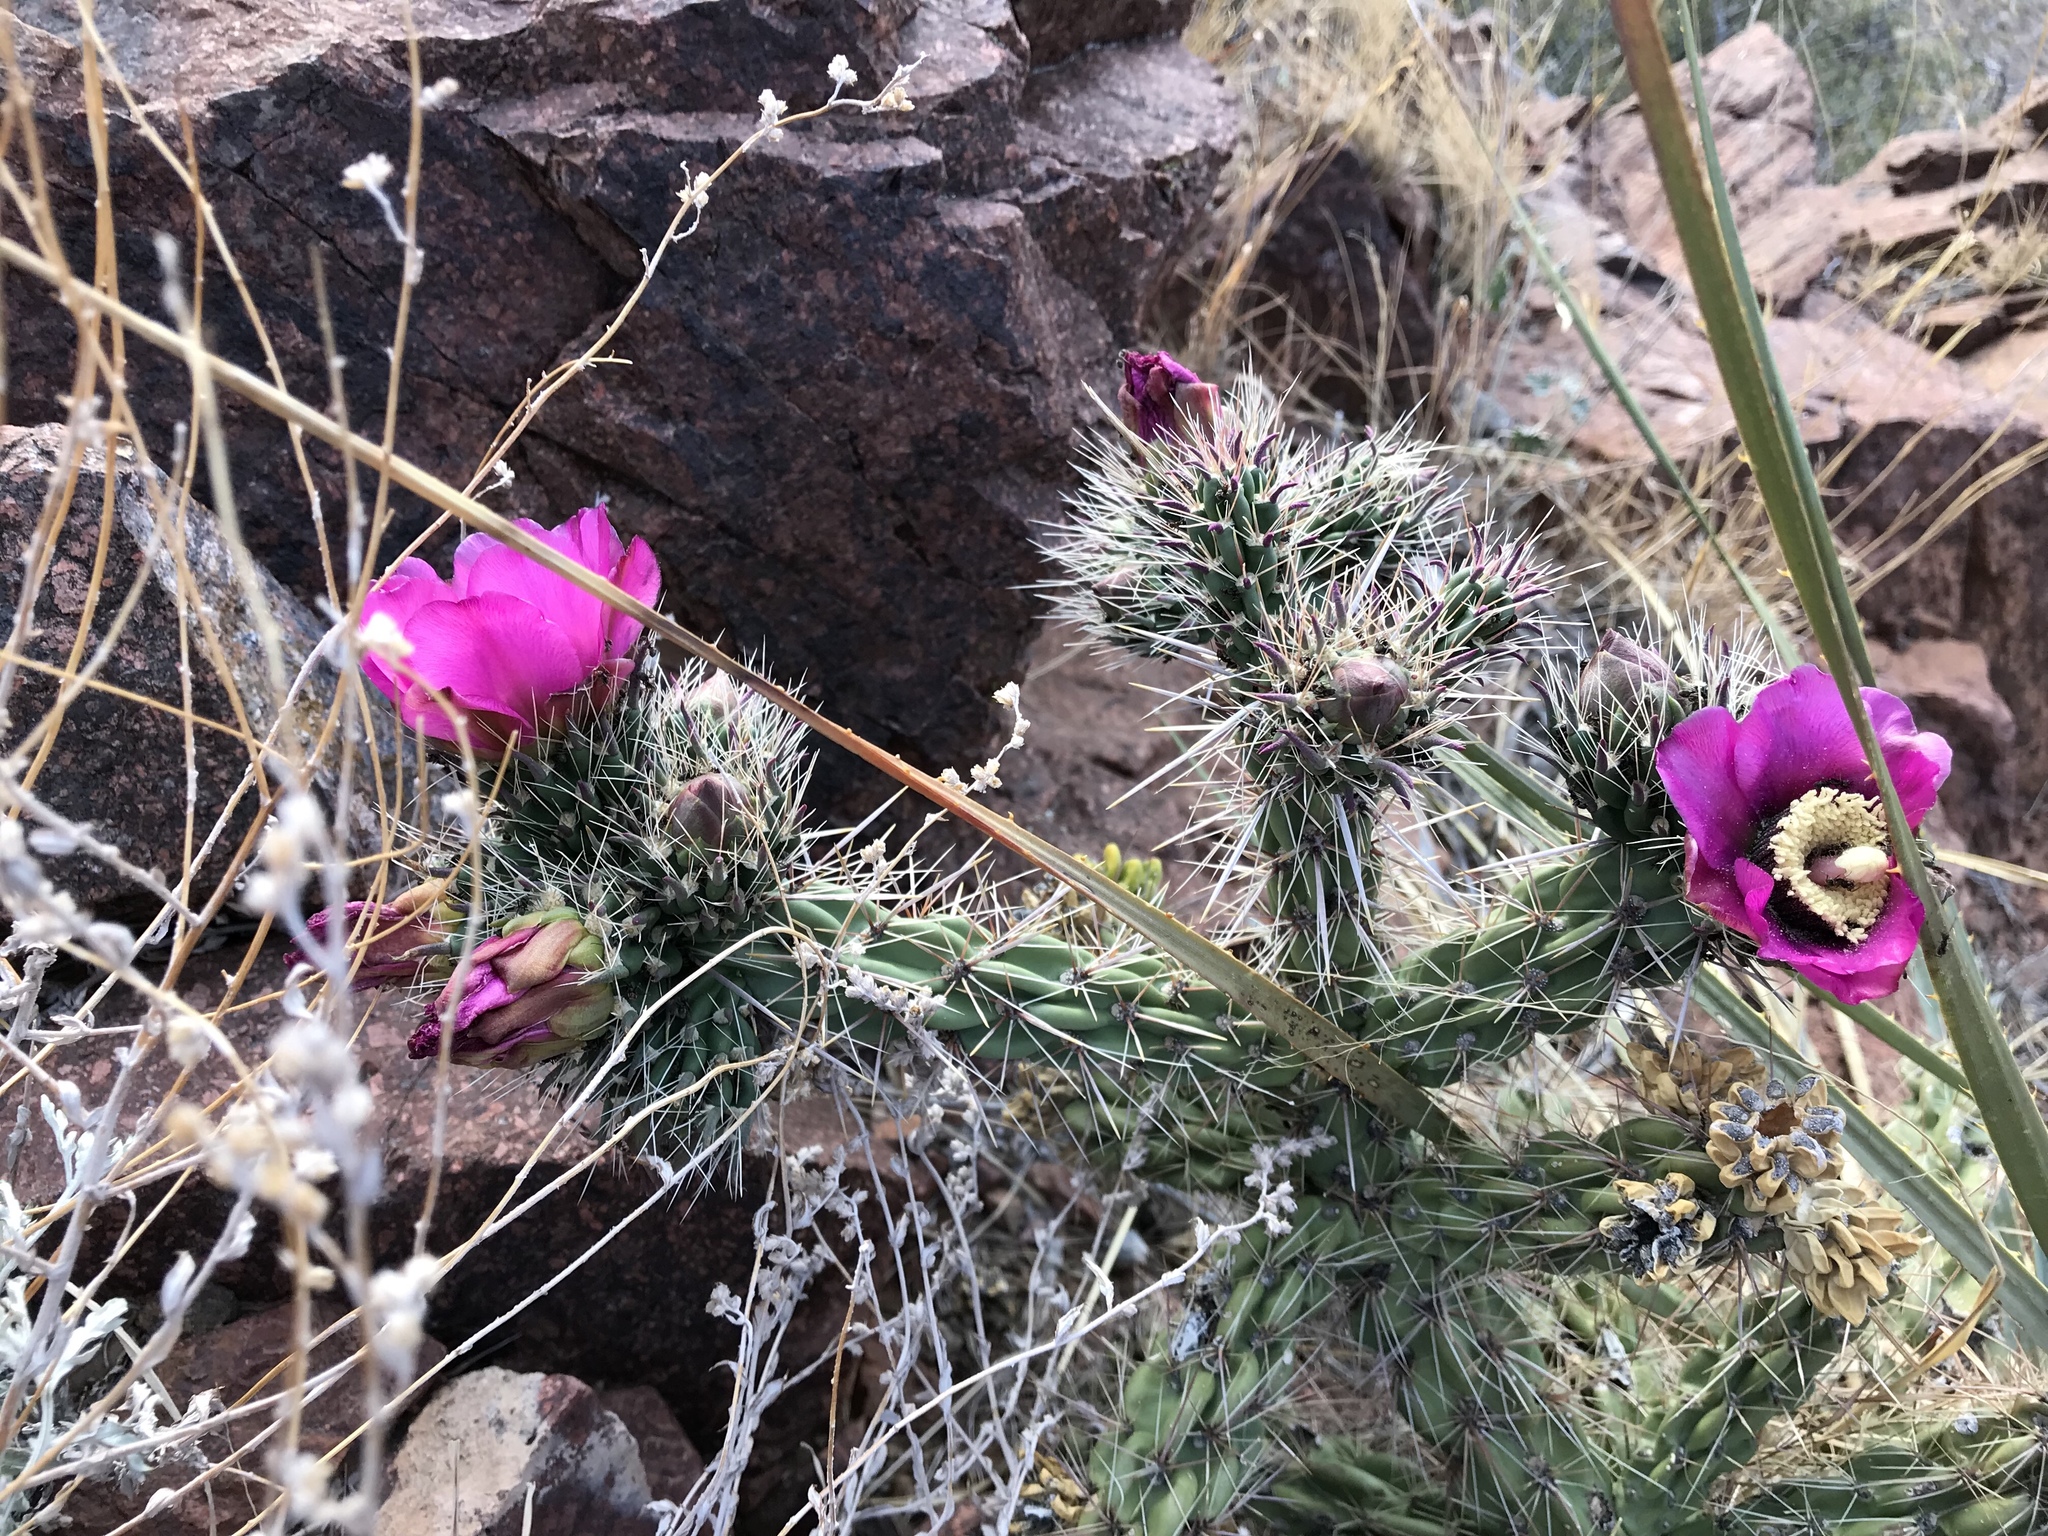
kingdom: Plantae
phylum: Tracheophyta
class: Magnoliopsida
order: Caryophyllales
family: Cactaceae
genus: Cylindropuntia
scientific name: Cylindropuntia imbricata
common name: Candelabrum cactus
